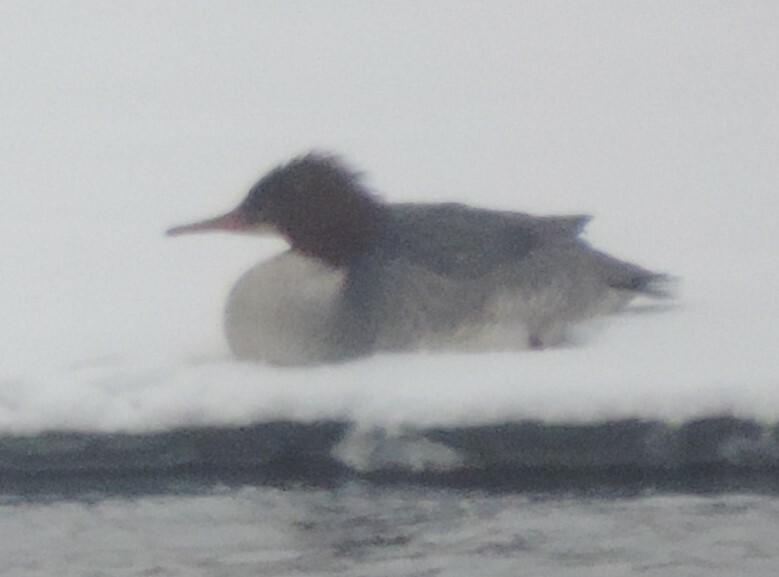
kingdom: Animalia
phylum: Chordata
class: Aves
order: Anseriformes
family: Anatidae
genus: Mergus
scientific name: Mergus merganser
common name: Common merganser
